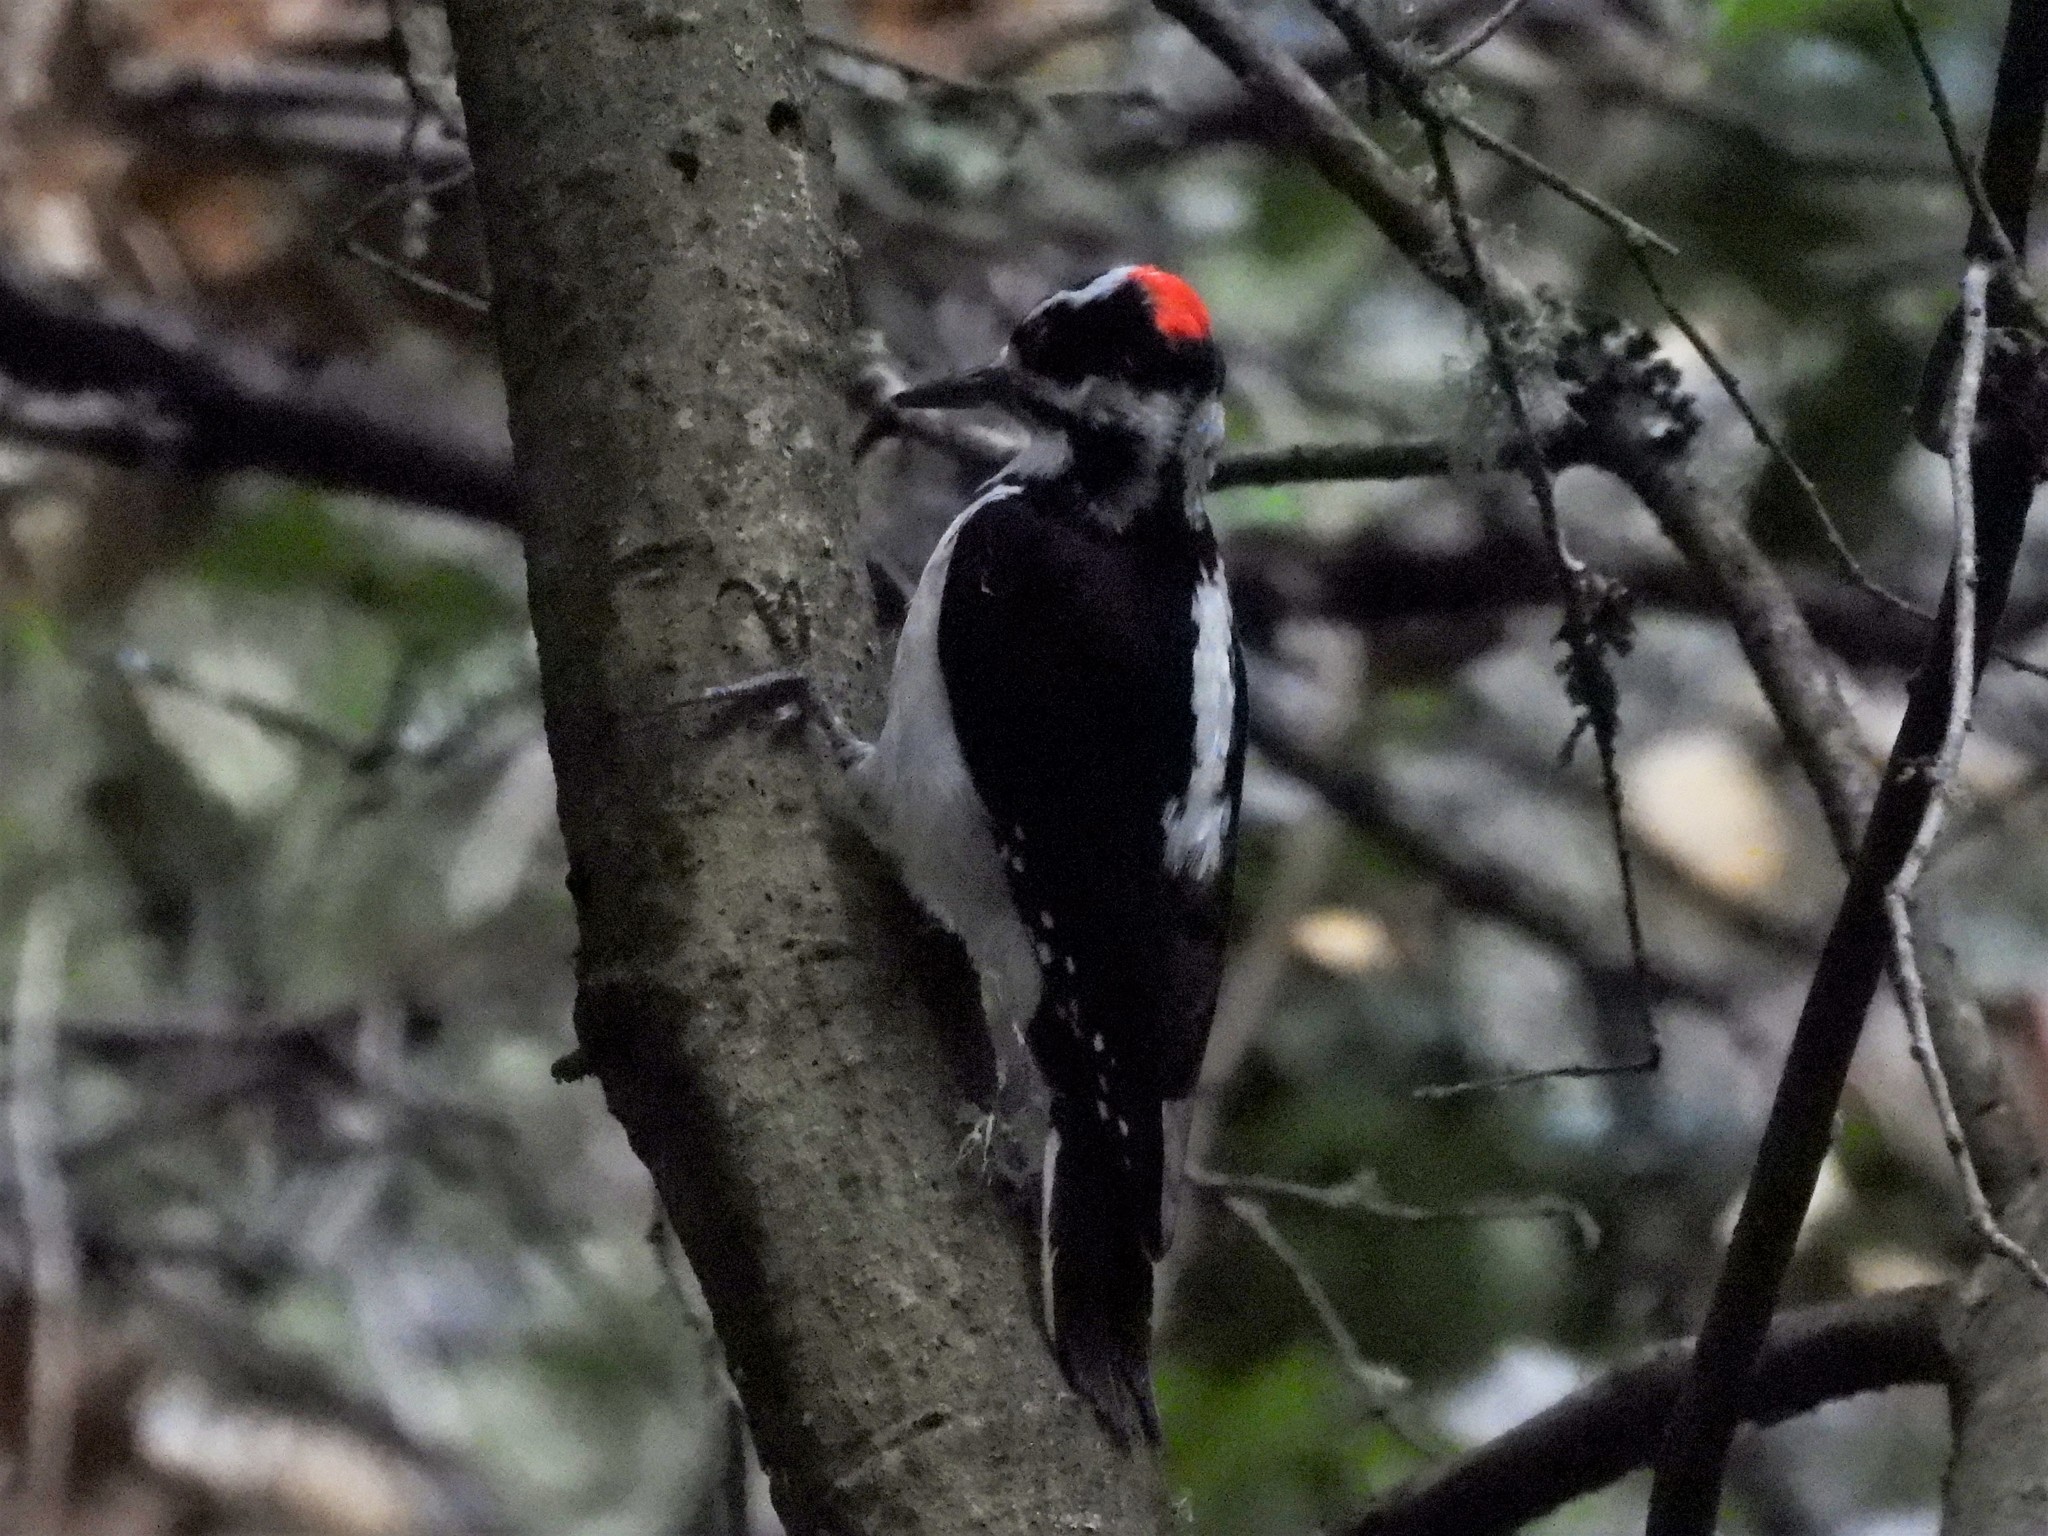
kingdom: Animalia
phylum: Chordata
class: Aves
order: Piciformes
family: Picidae
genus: Leuconotopicus
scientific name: Leuconotopicus villosus
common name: Hairy woodpecker
